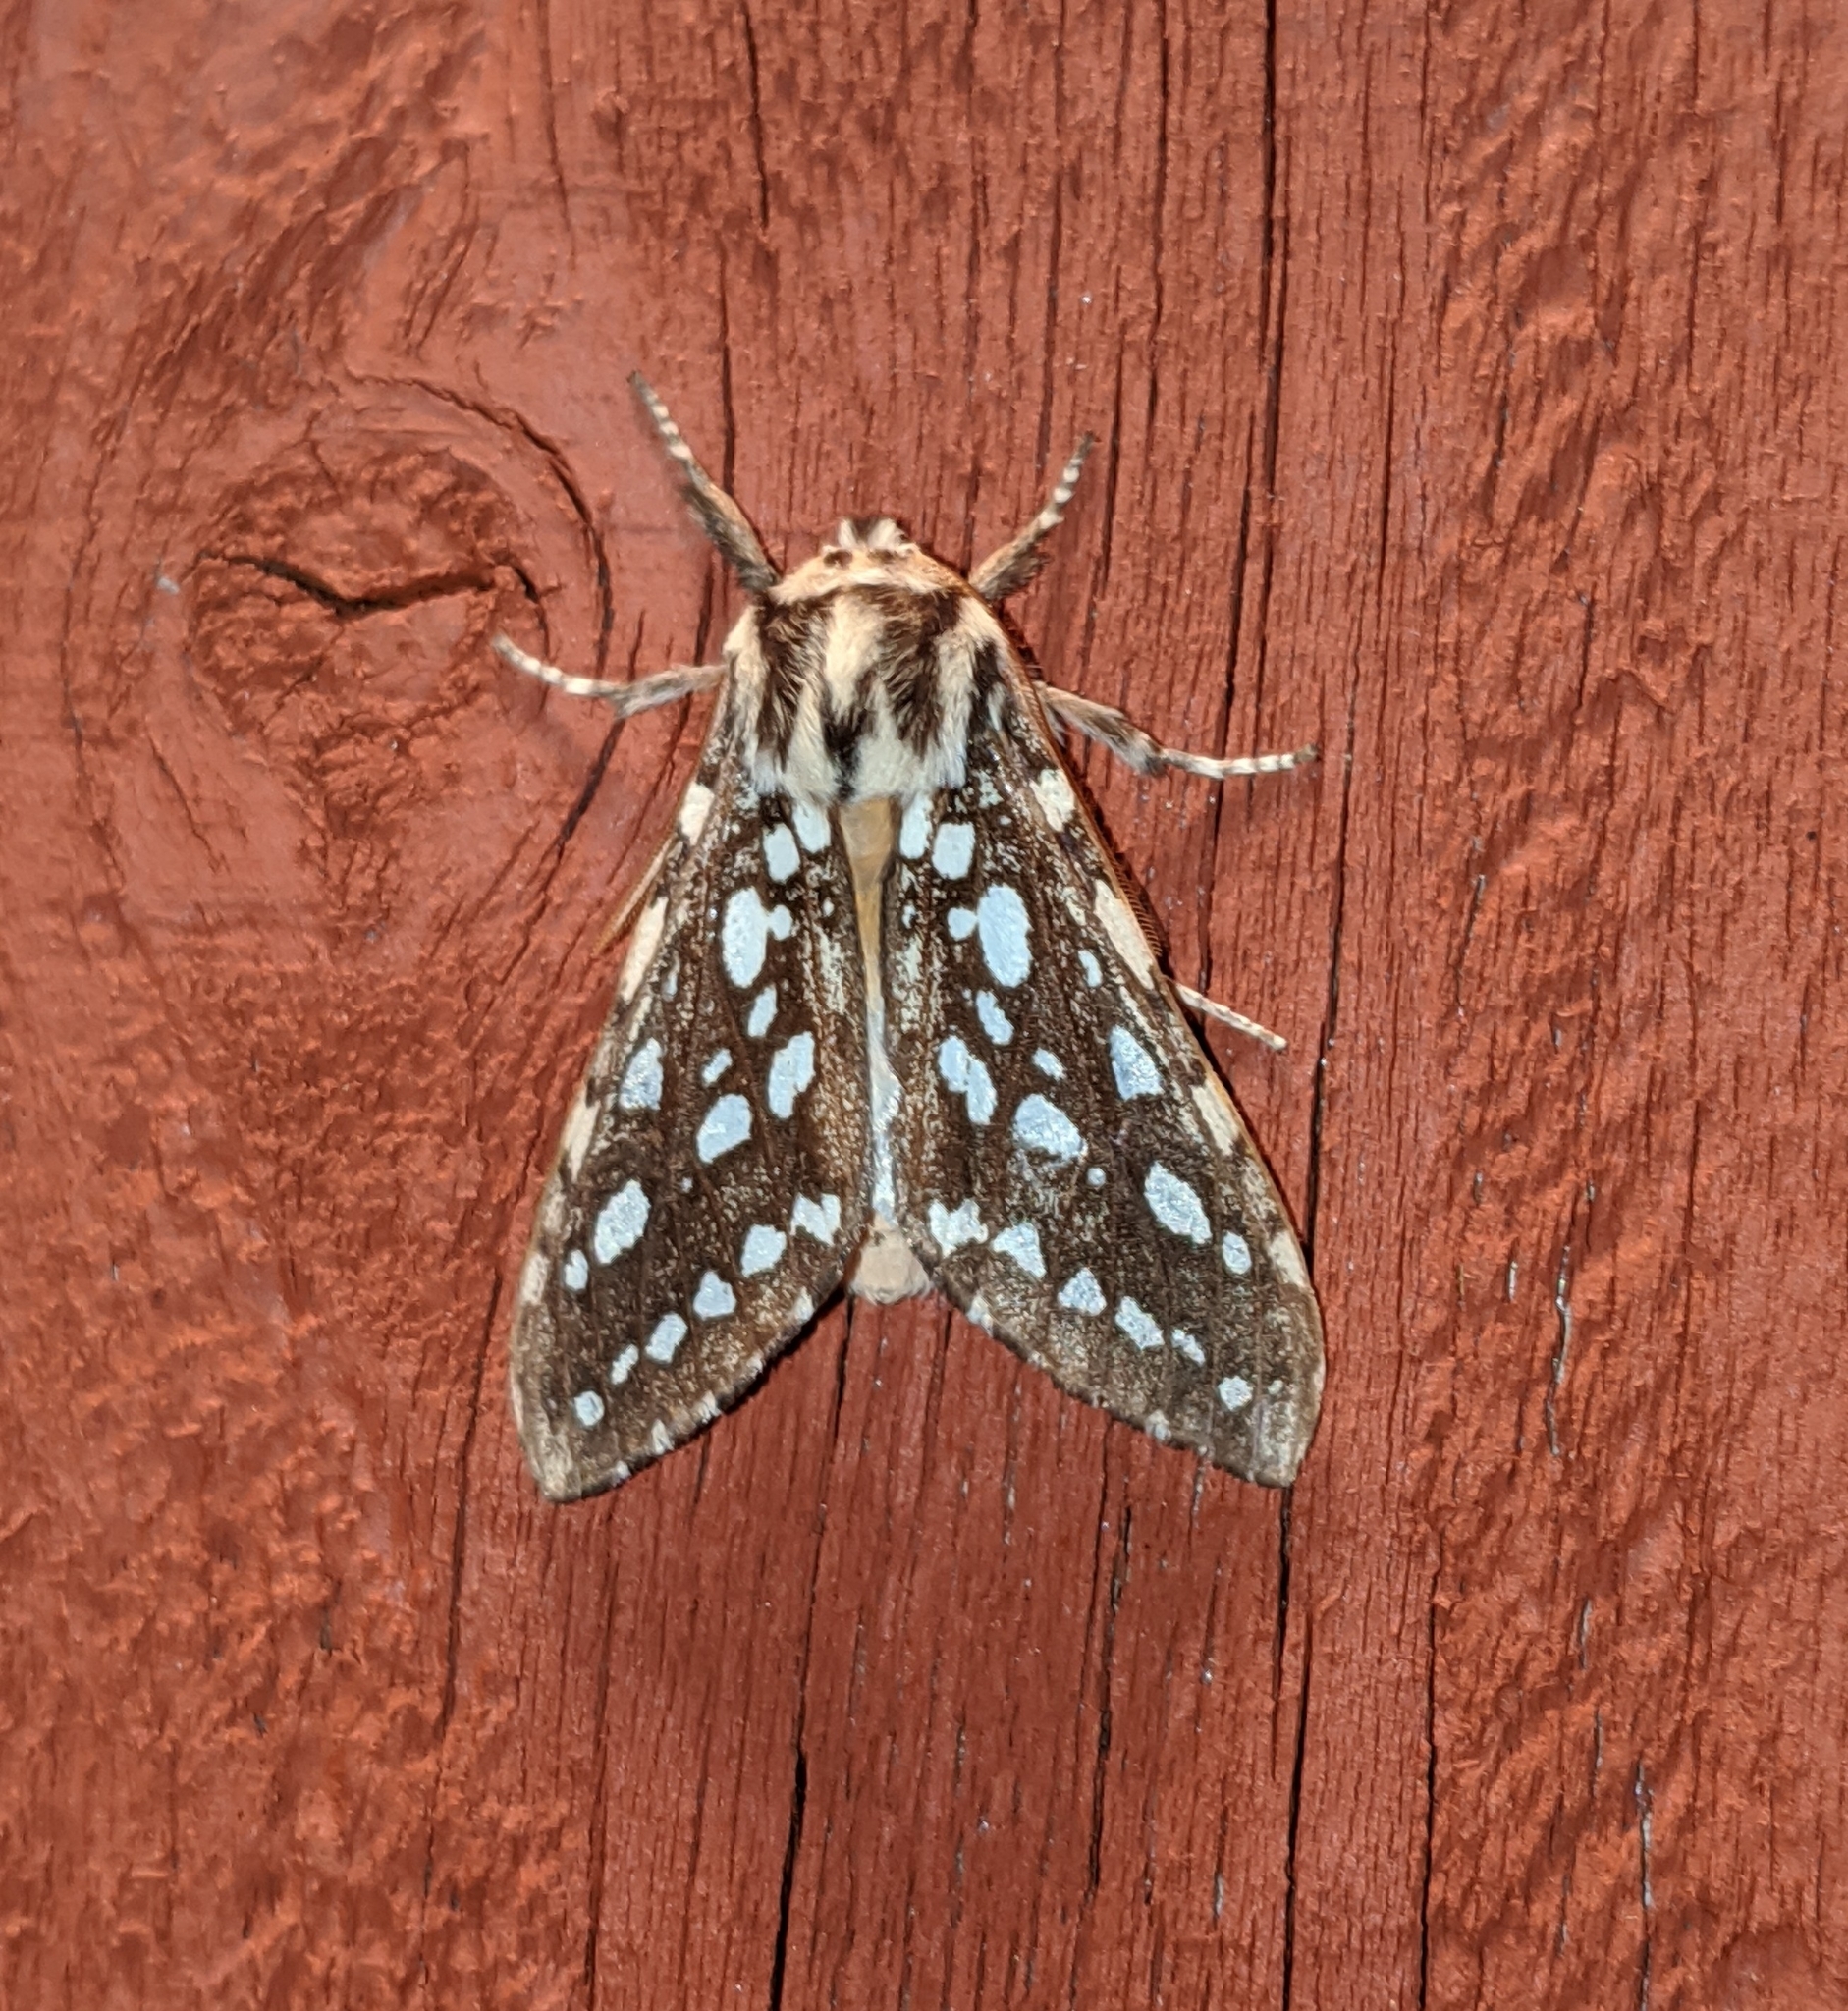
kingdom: Animalia
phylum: Arthropoda
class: Insecta
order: Lepidoptera
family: Erebidae
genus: Lophocampa
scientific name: Lophocampa argentata
